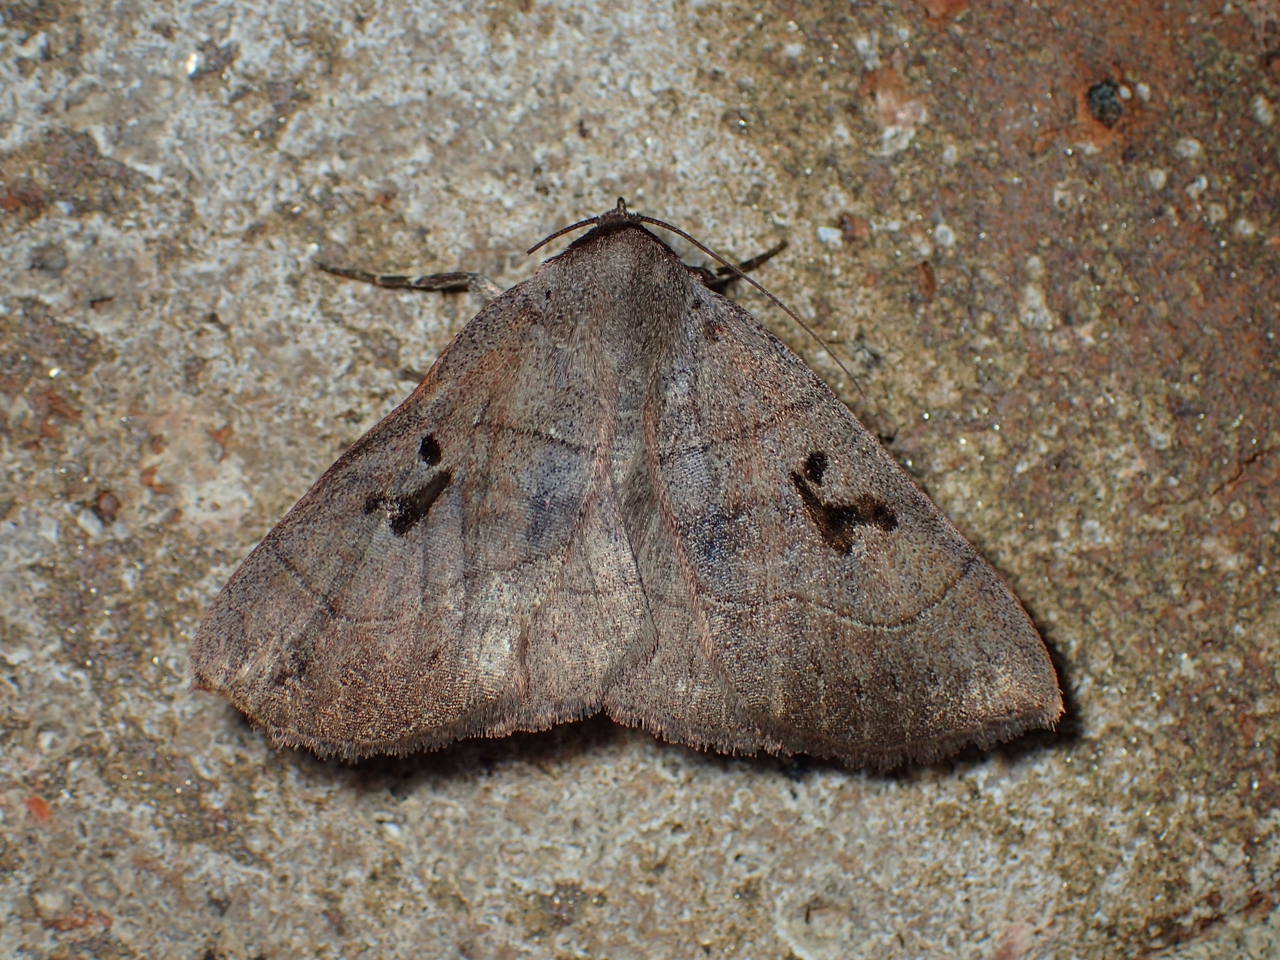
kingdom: Animalia
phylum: Arthropoda
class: Insecta
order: Lepidoptera
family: Erebidae
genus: Panopoda
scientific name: Panopoda carneicosta
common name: Brown panopoda moth
